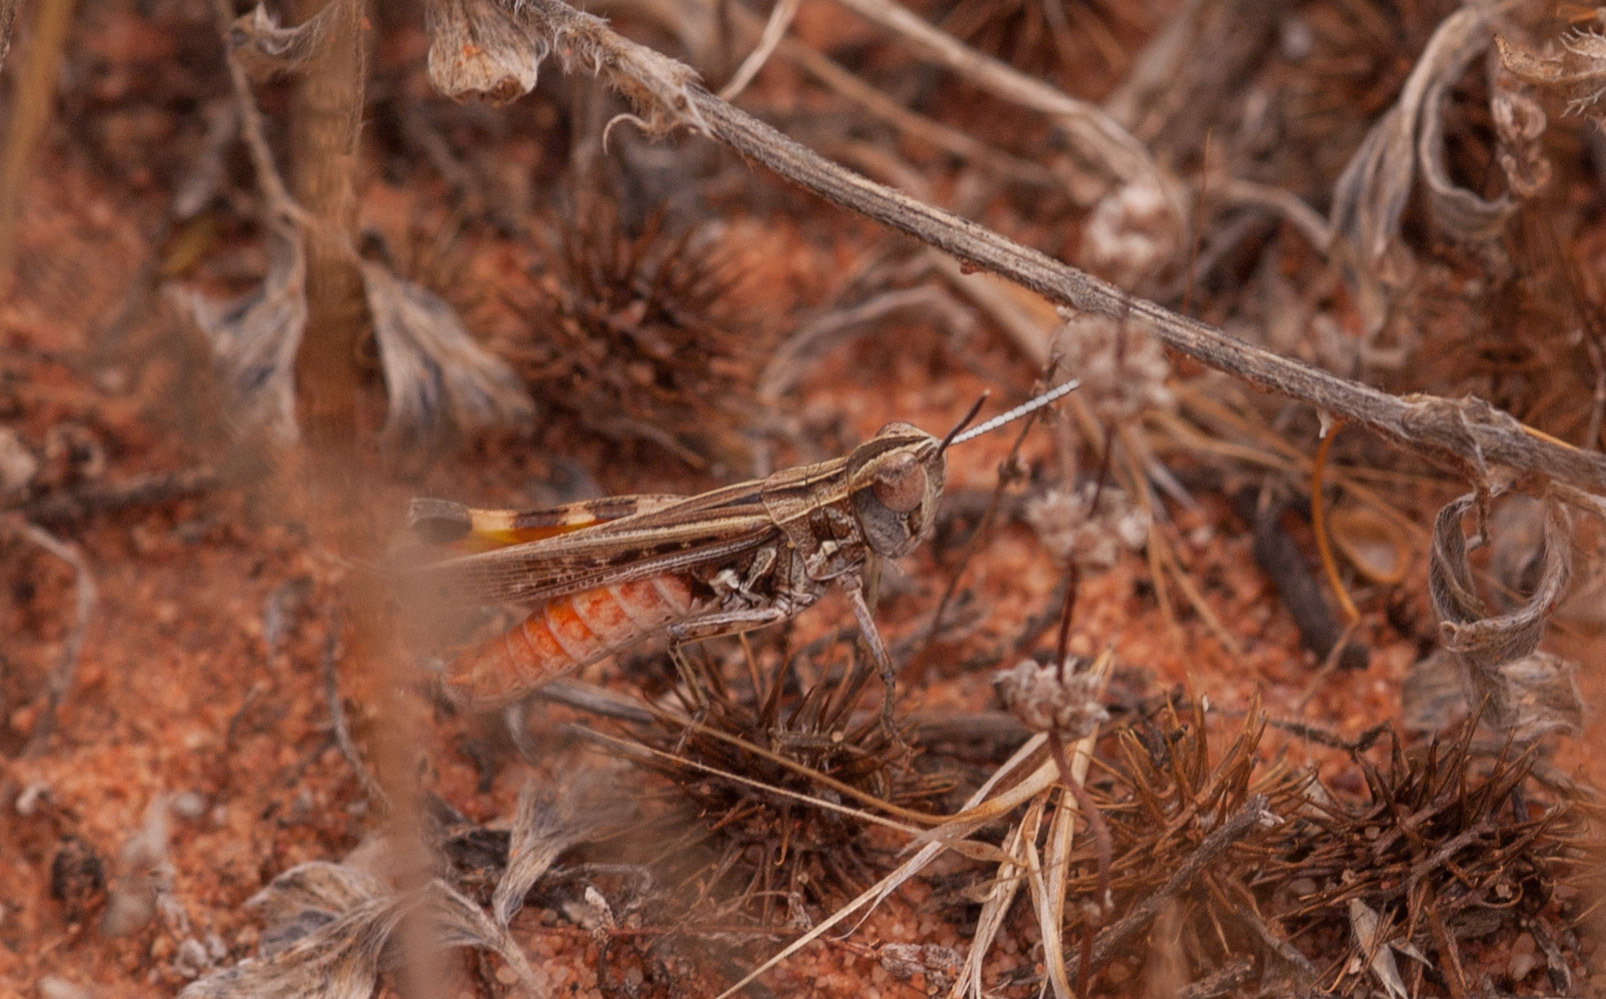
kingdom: Animalia
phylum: Arthropoda
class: Insecta
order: Orthoptera
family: Acrididae
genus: Azelota
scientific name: Azelota
